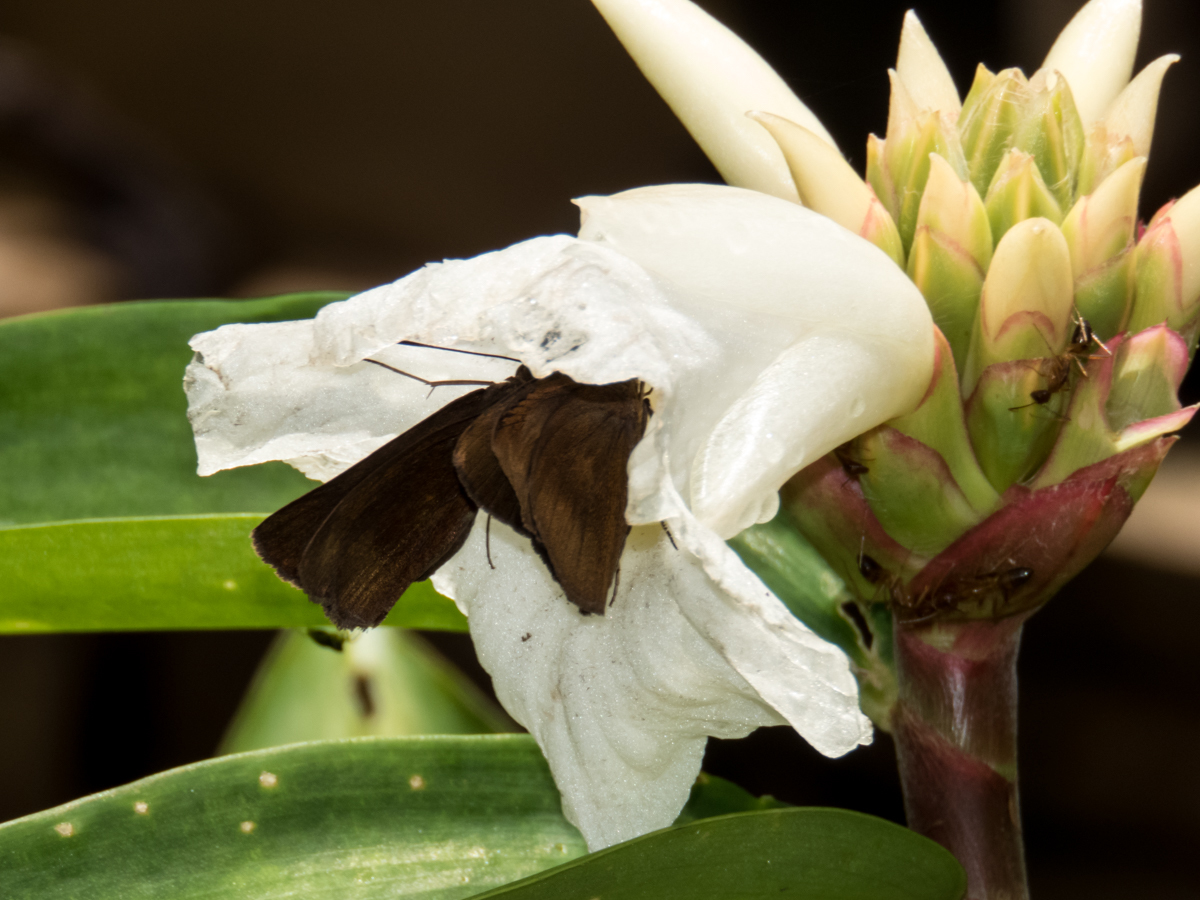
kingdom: Animalia
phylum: Arthropoda
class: Insecta
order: Lepidoptera
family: Hesperiidae
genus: Ancistroides
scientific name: Ancistroides nigrita
